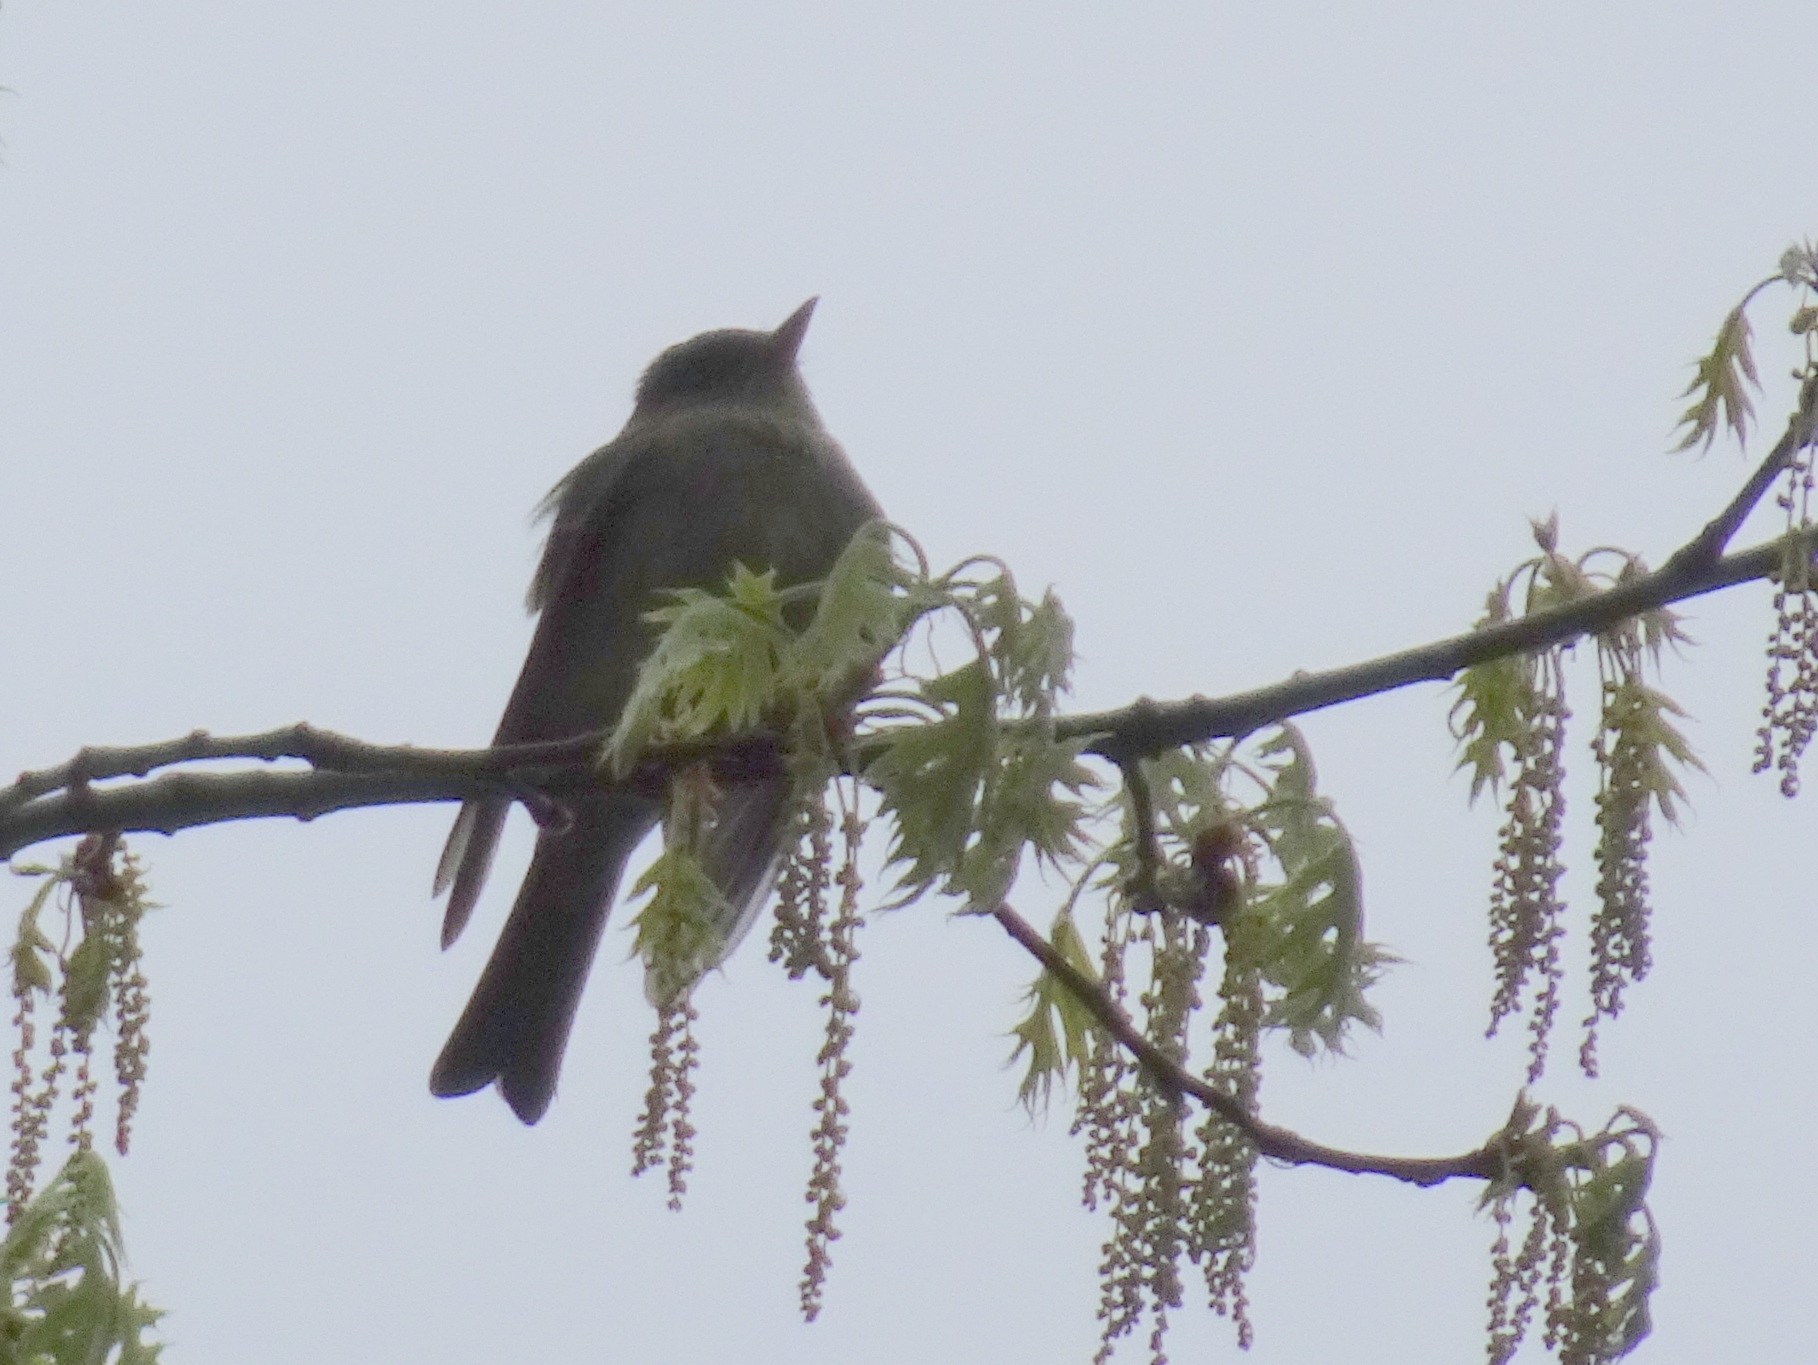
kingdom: Animalia
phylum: Chordata
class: Aves
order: Passeriformes
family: Tyrannidae
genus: Contopus
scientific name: Contopus virens
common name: Eastern wood-pewee
